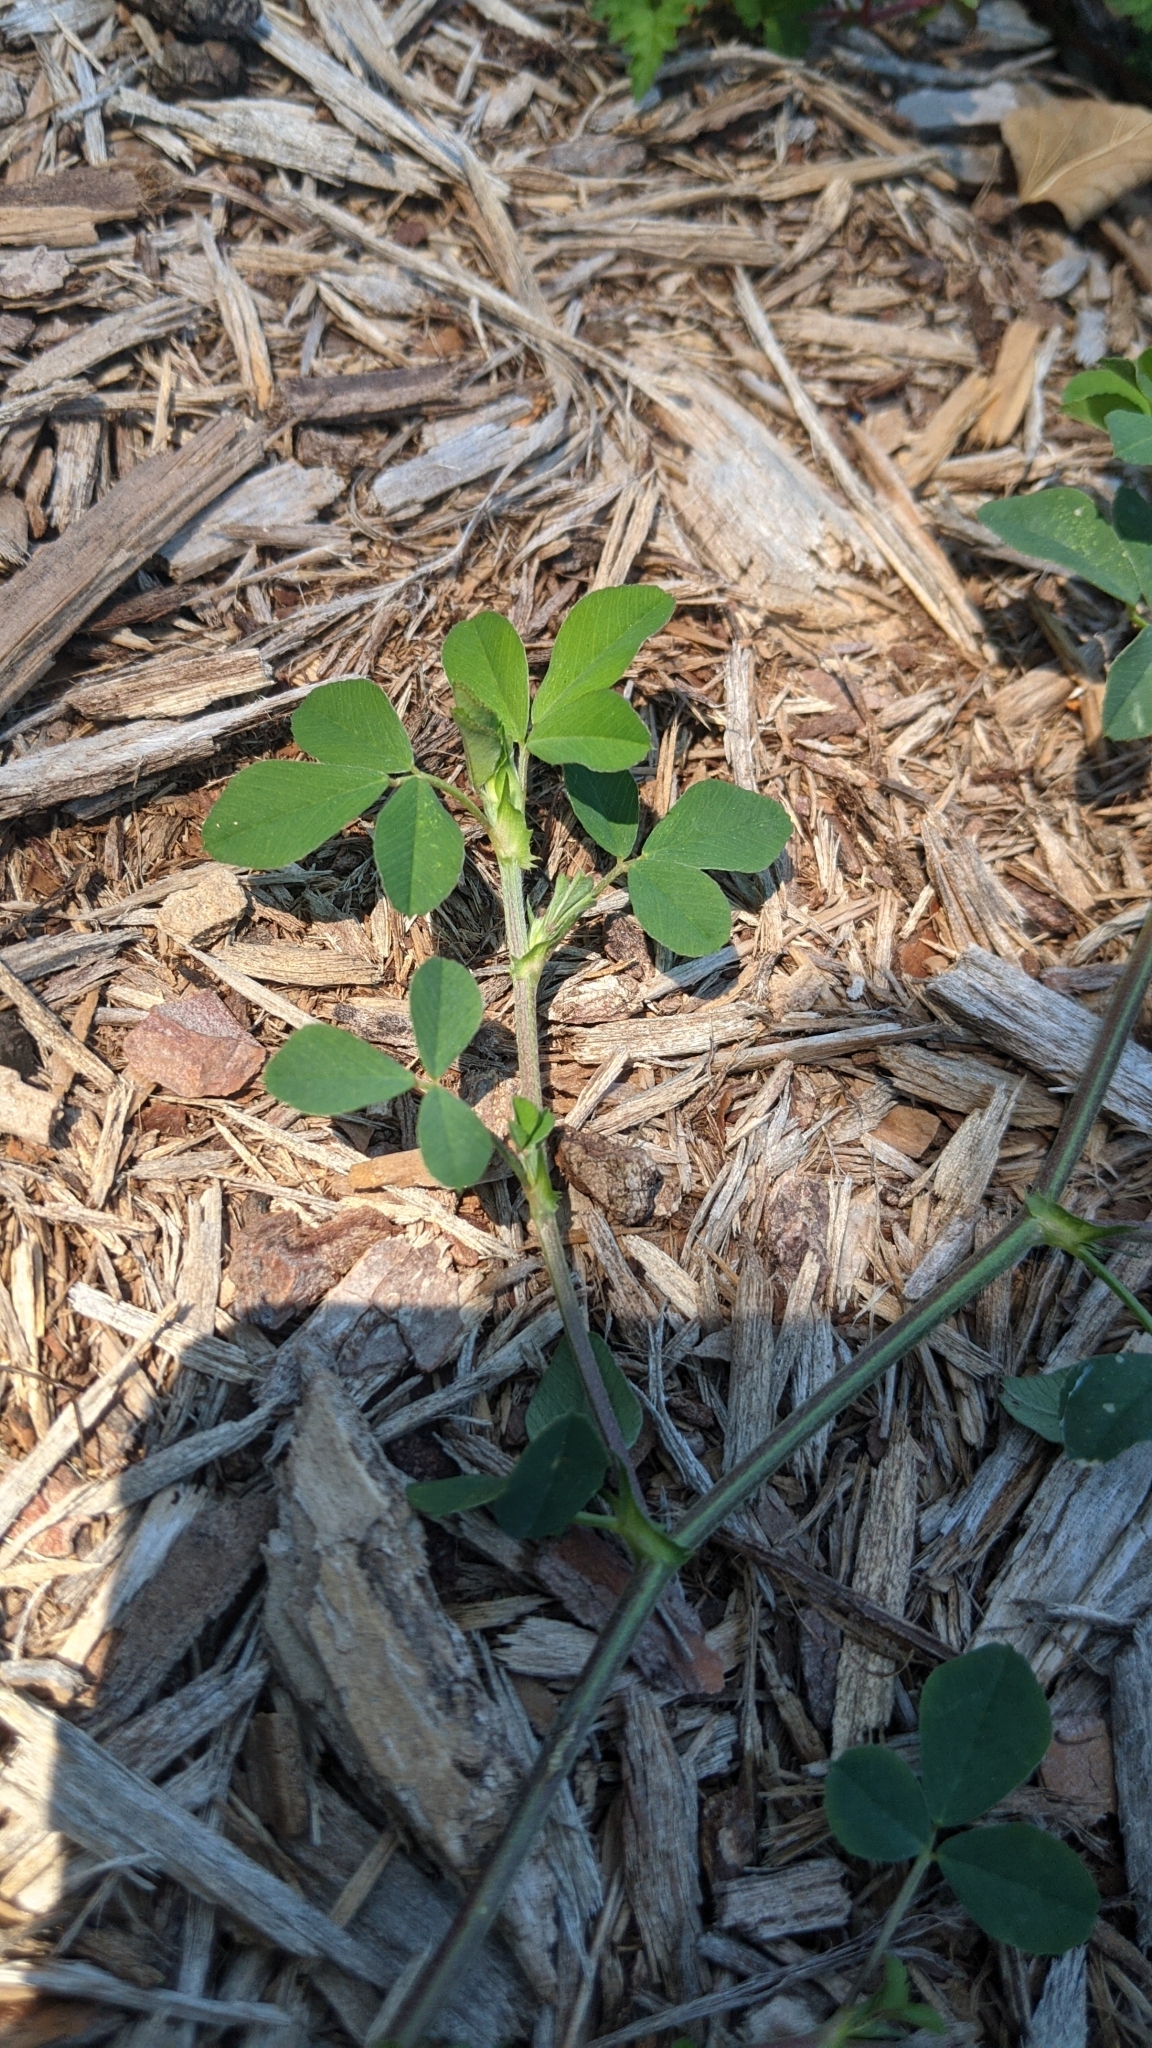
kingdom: Plantae
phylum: Tracheophyta
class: Magnoliopsida
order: Fabales
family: Fabaceae
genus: Medicago
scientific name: Medicago lupulina
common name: Black medick
